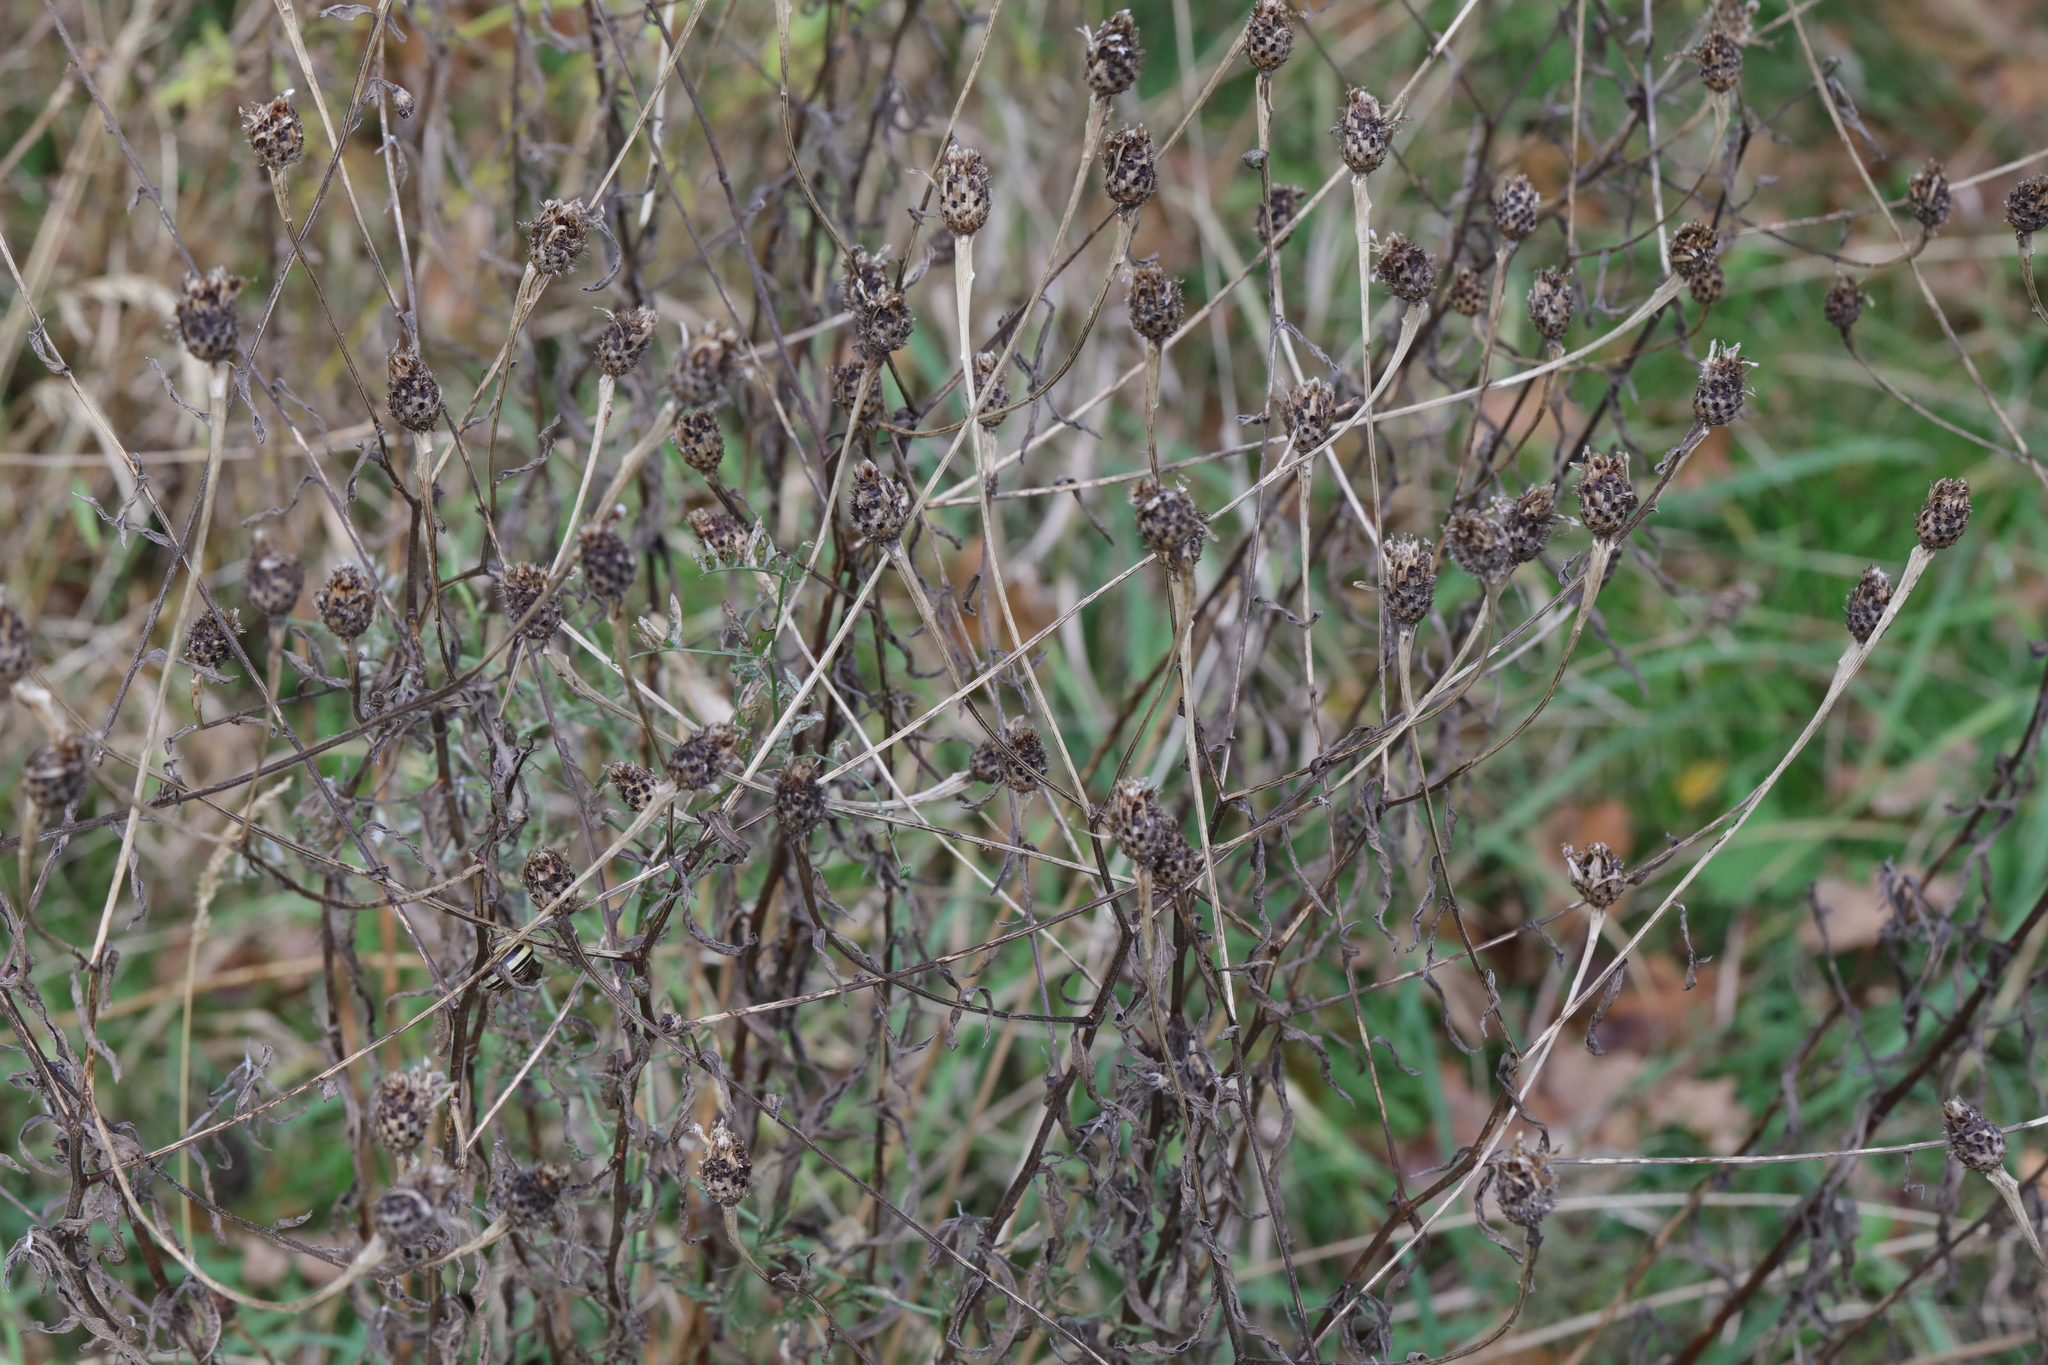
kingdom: Plantae
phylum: Tracheophyta
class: Magnoliopsida
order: Asterales
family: Asteraceae
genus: Centaurea
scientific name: Centaurea nigra
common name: Lesser knapweed
